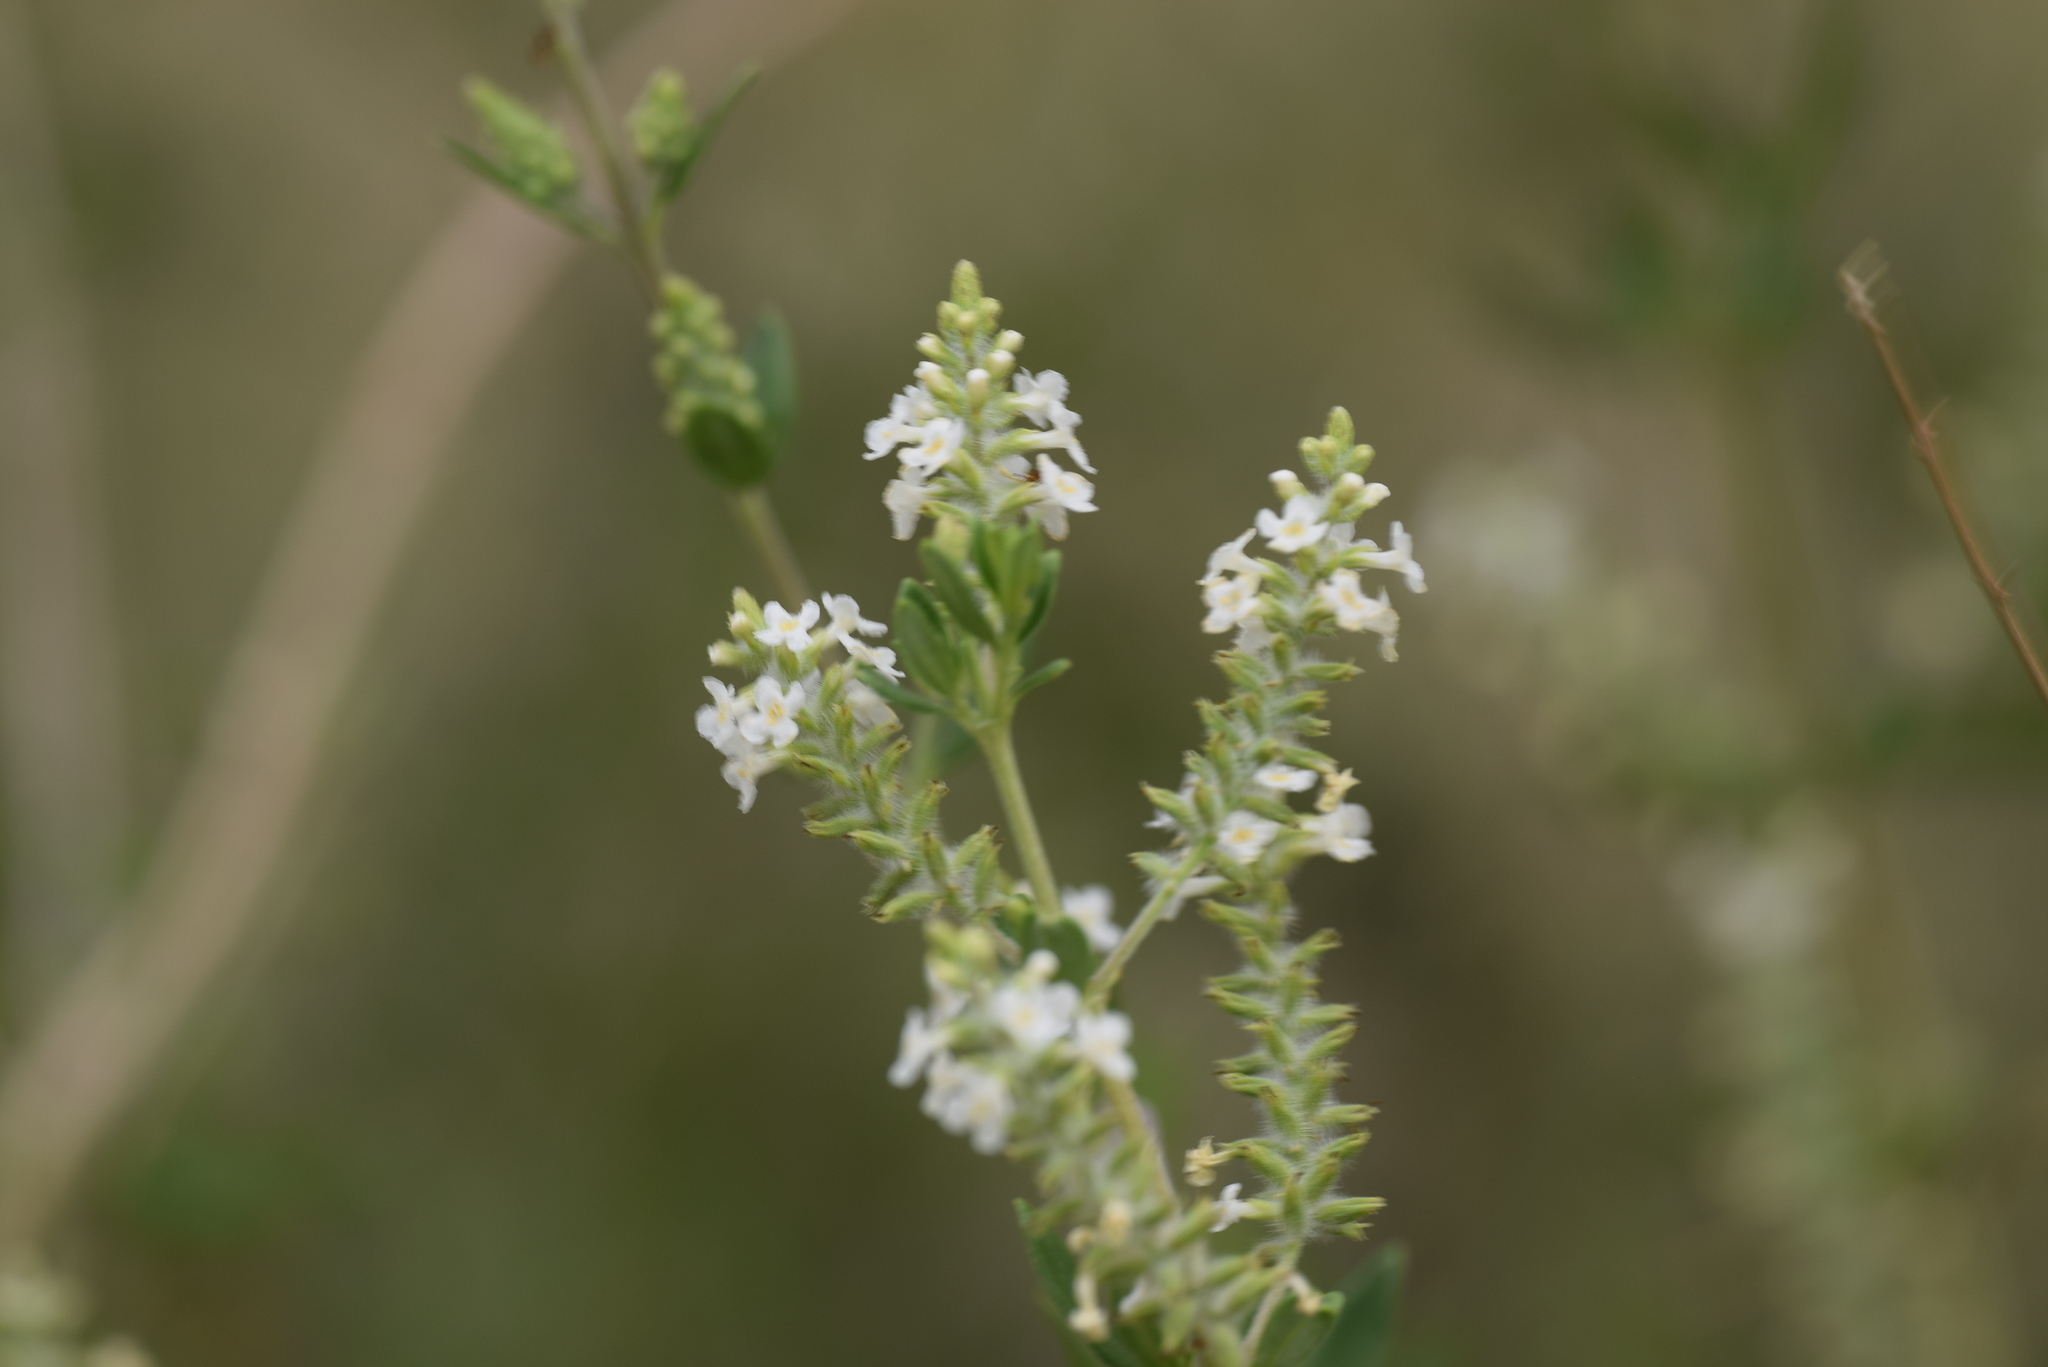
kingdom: Plantae
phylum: Tracheophyta
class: Magnoliopsida
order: Lamiales
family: Verbenaceae
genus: Aloysia
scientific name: Aloysia gratissima
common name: Common bee-brush
